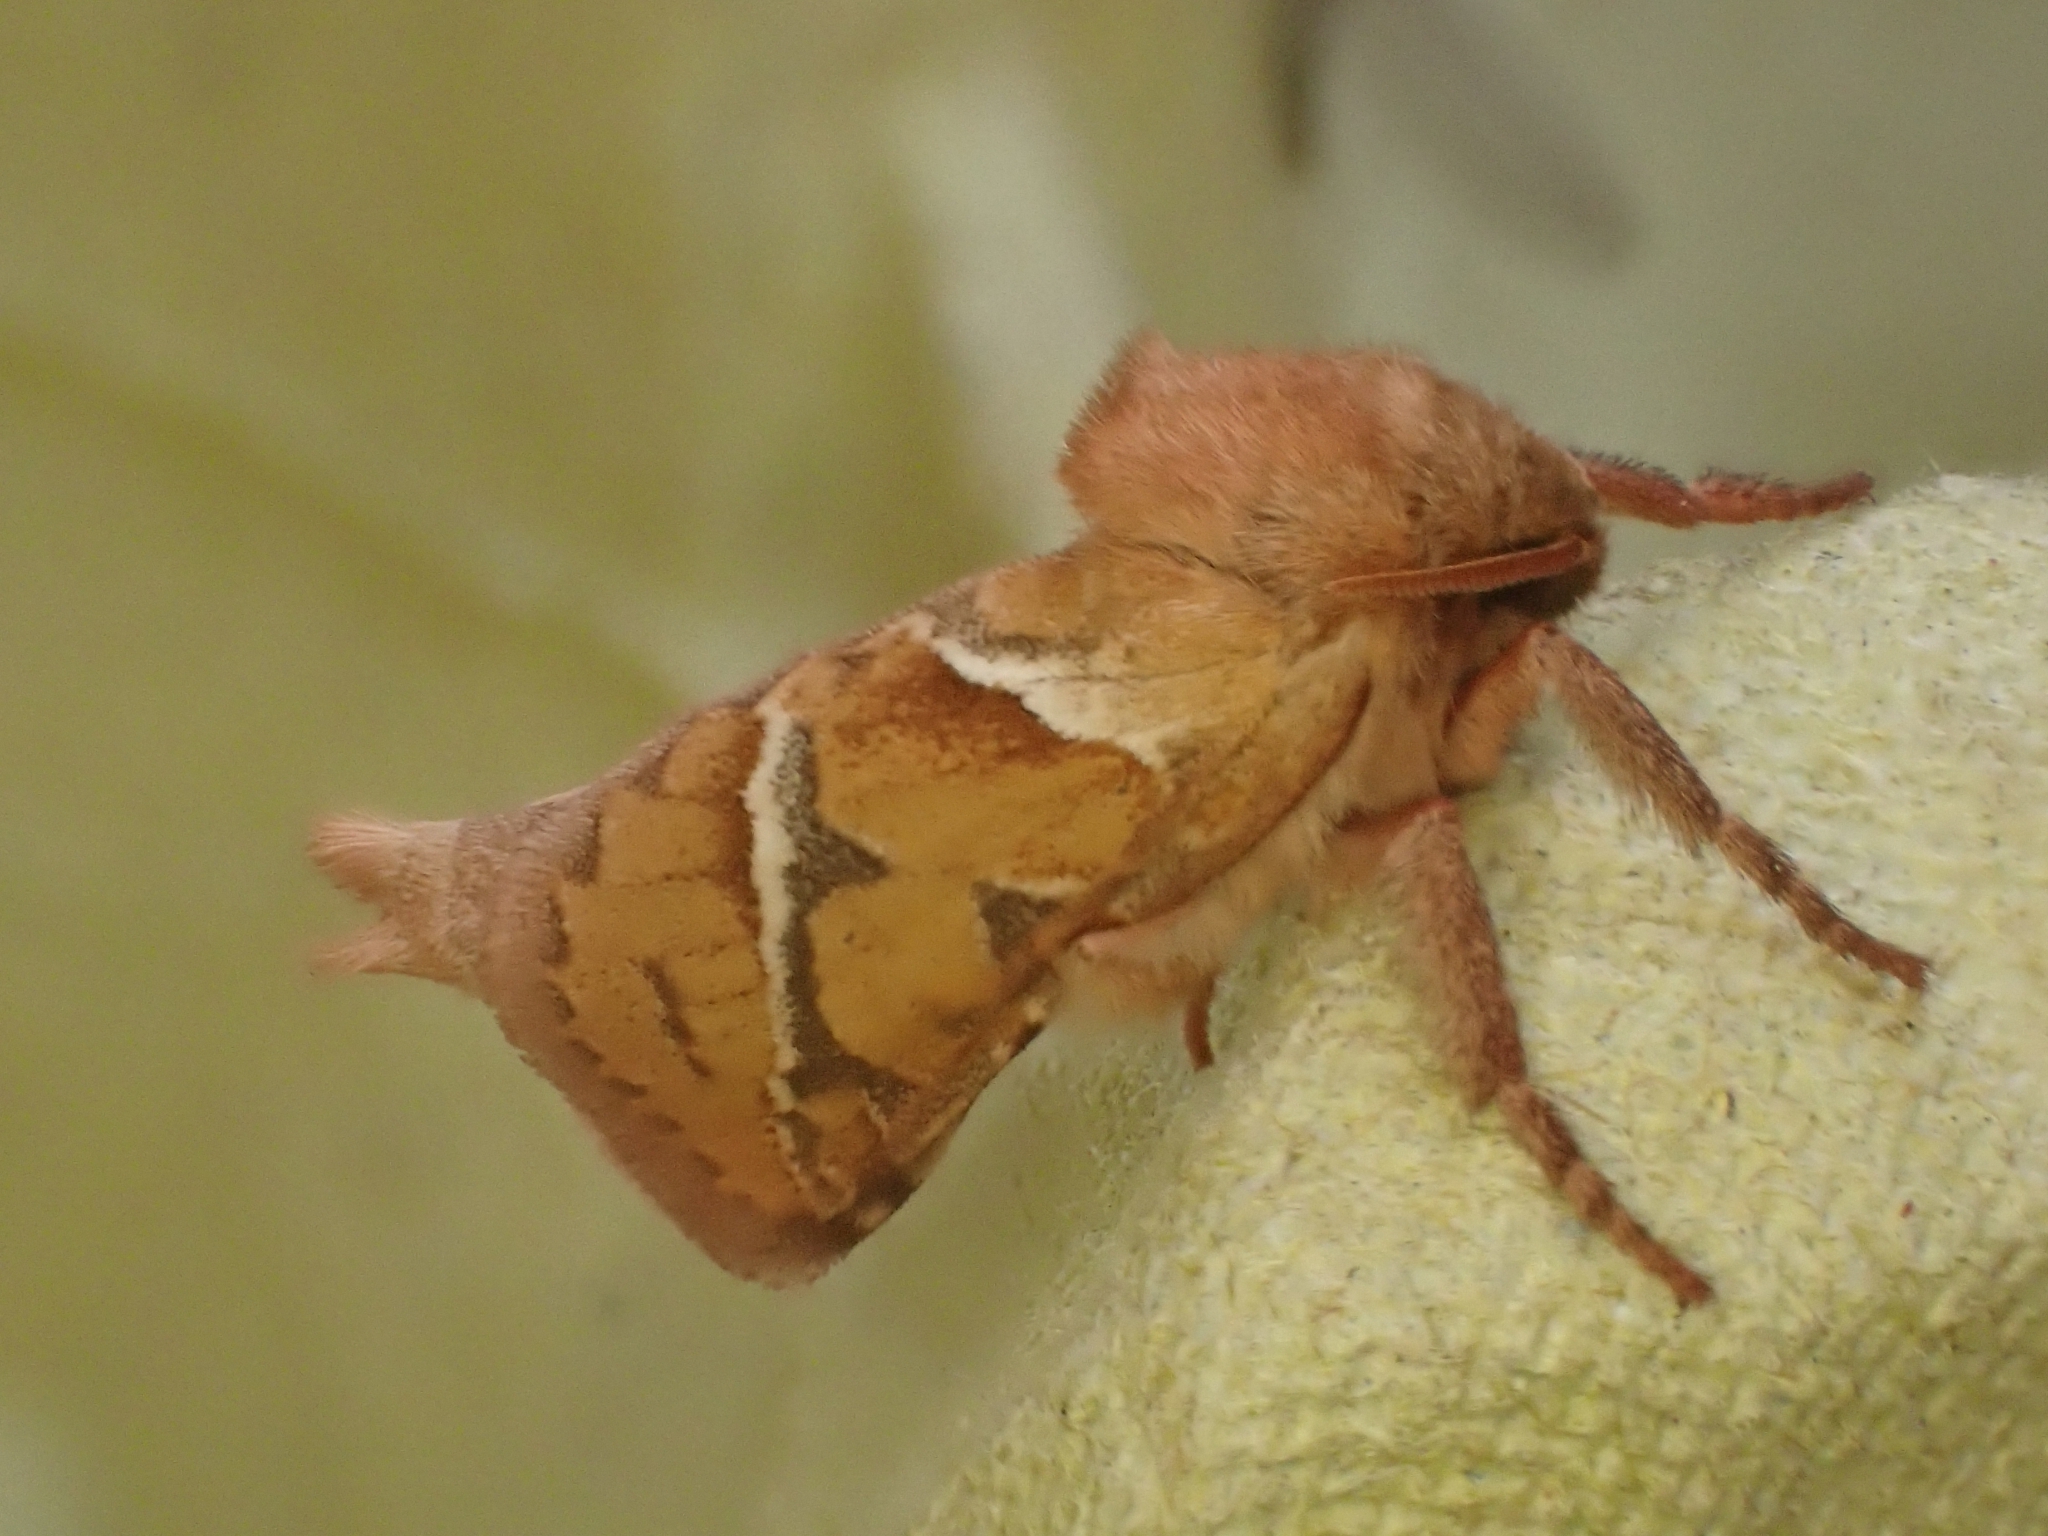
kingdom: Animalia
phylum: Arthropoda
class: Insecta
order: Lepidoptera
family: Hepialidae
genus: Triodia
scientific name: Triodia sylvina
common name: Orange swift
